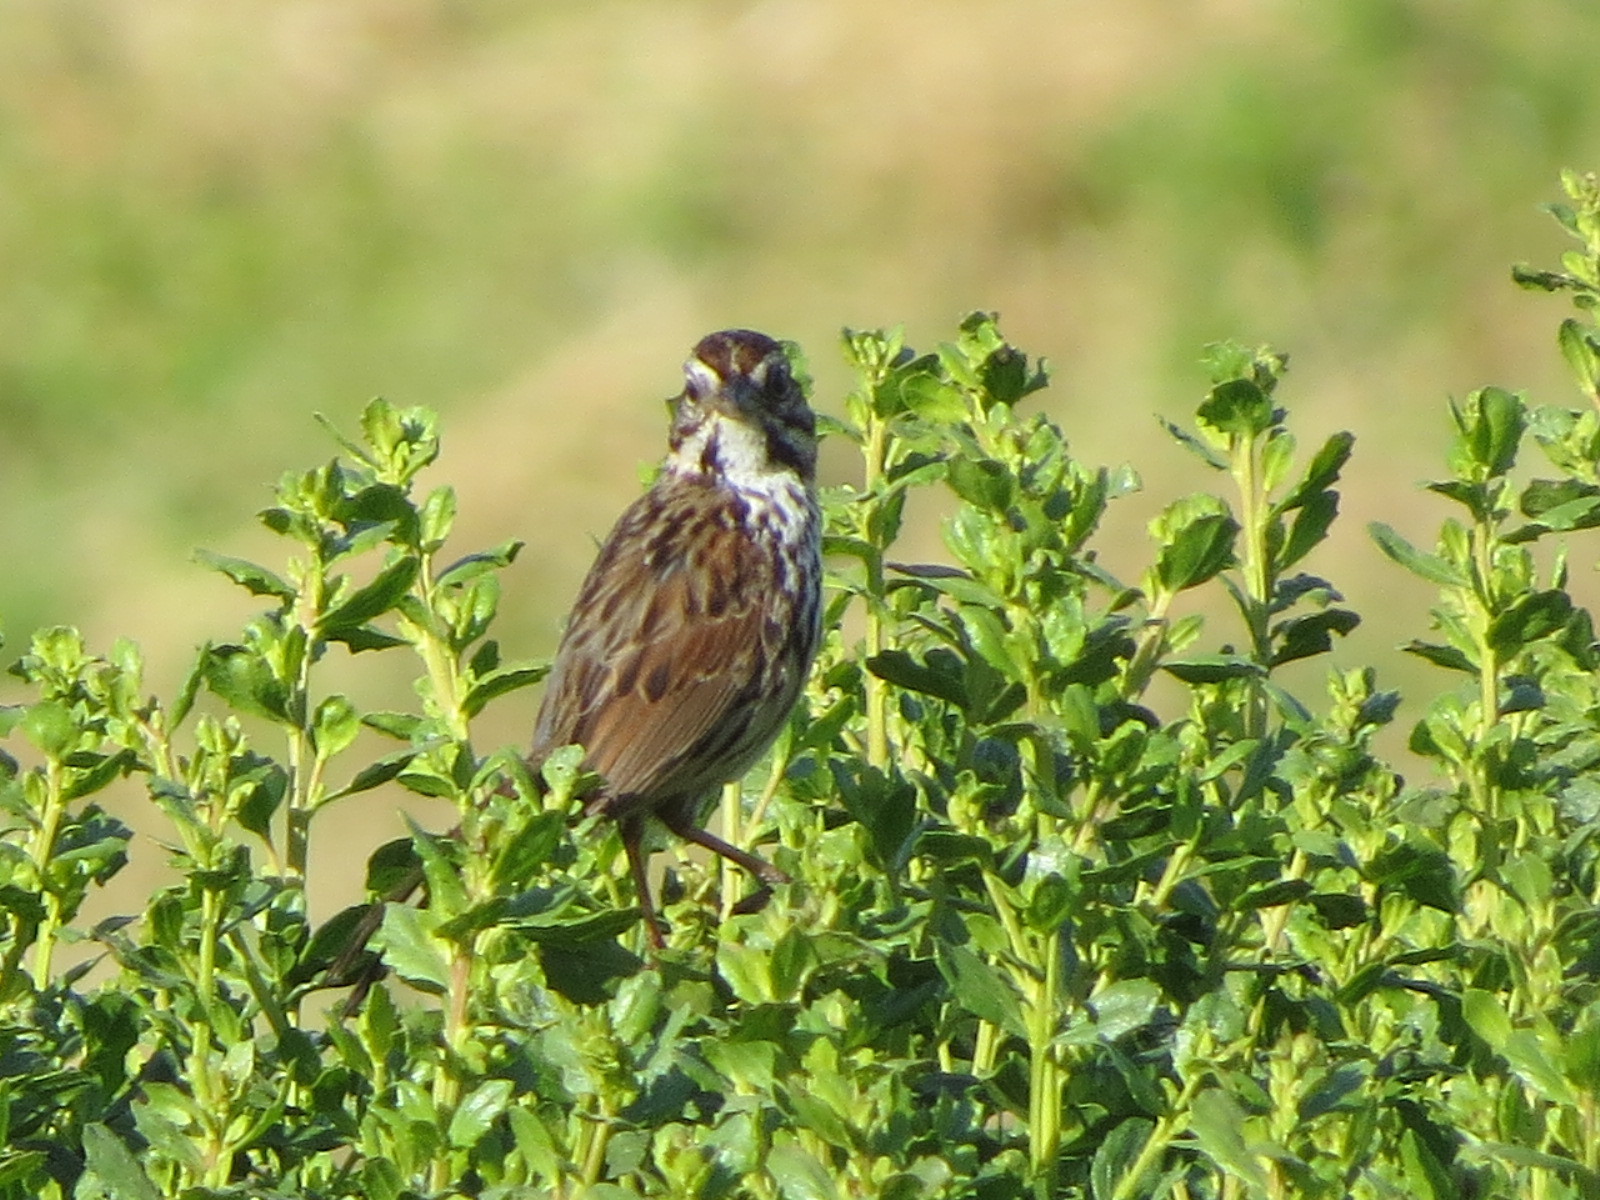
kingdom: Animalia
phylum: Chordata
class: Aves
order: Passeriformes
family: Passerellidae
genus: Melospiza
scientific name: Melospiza melodia
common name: Song sparrow
